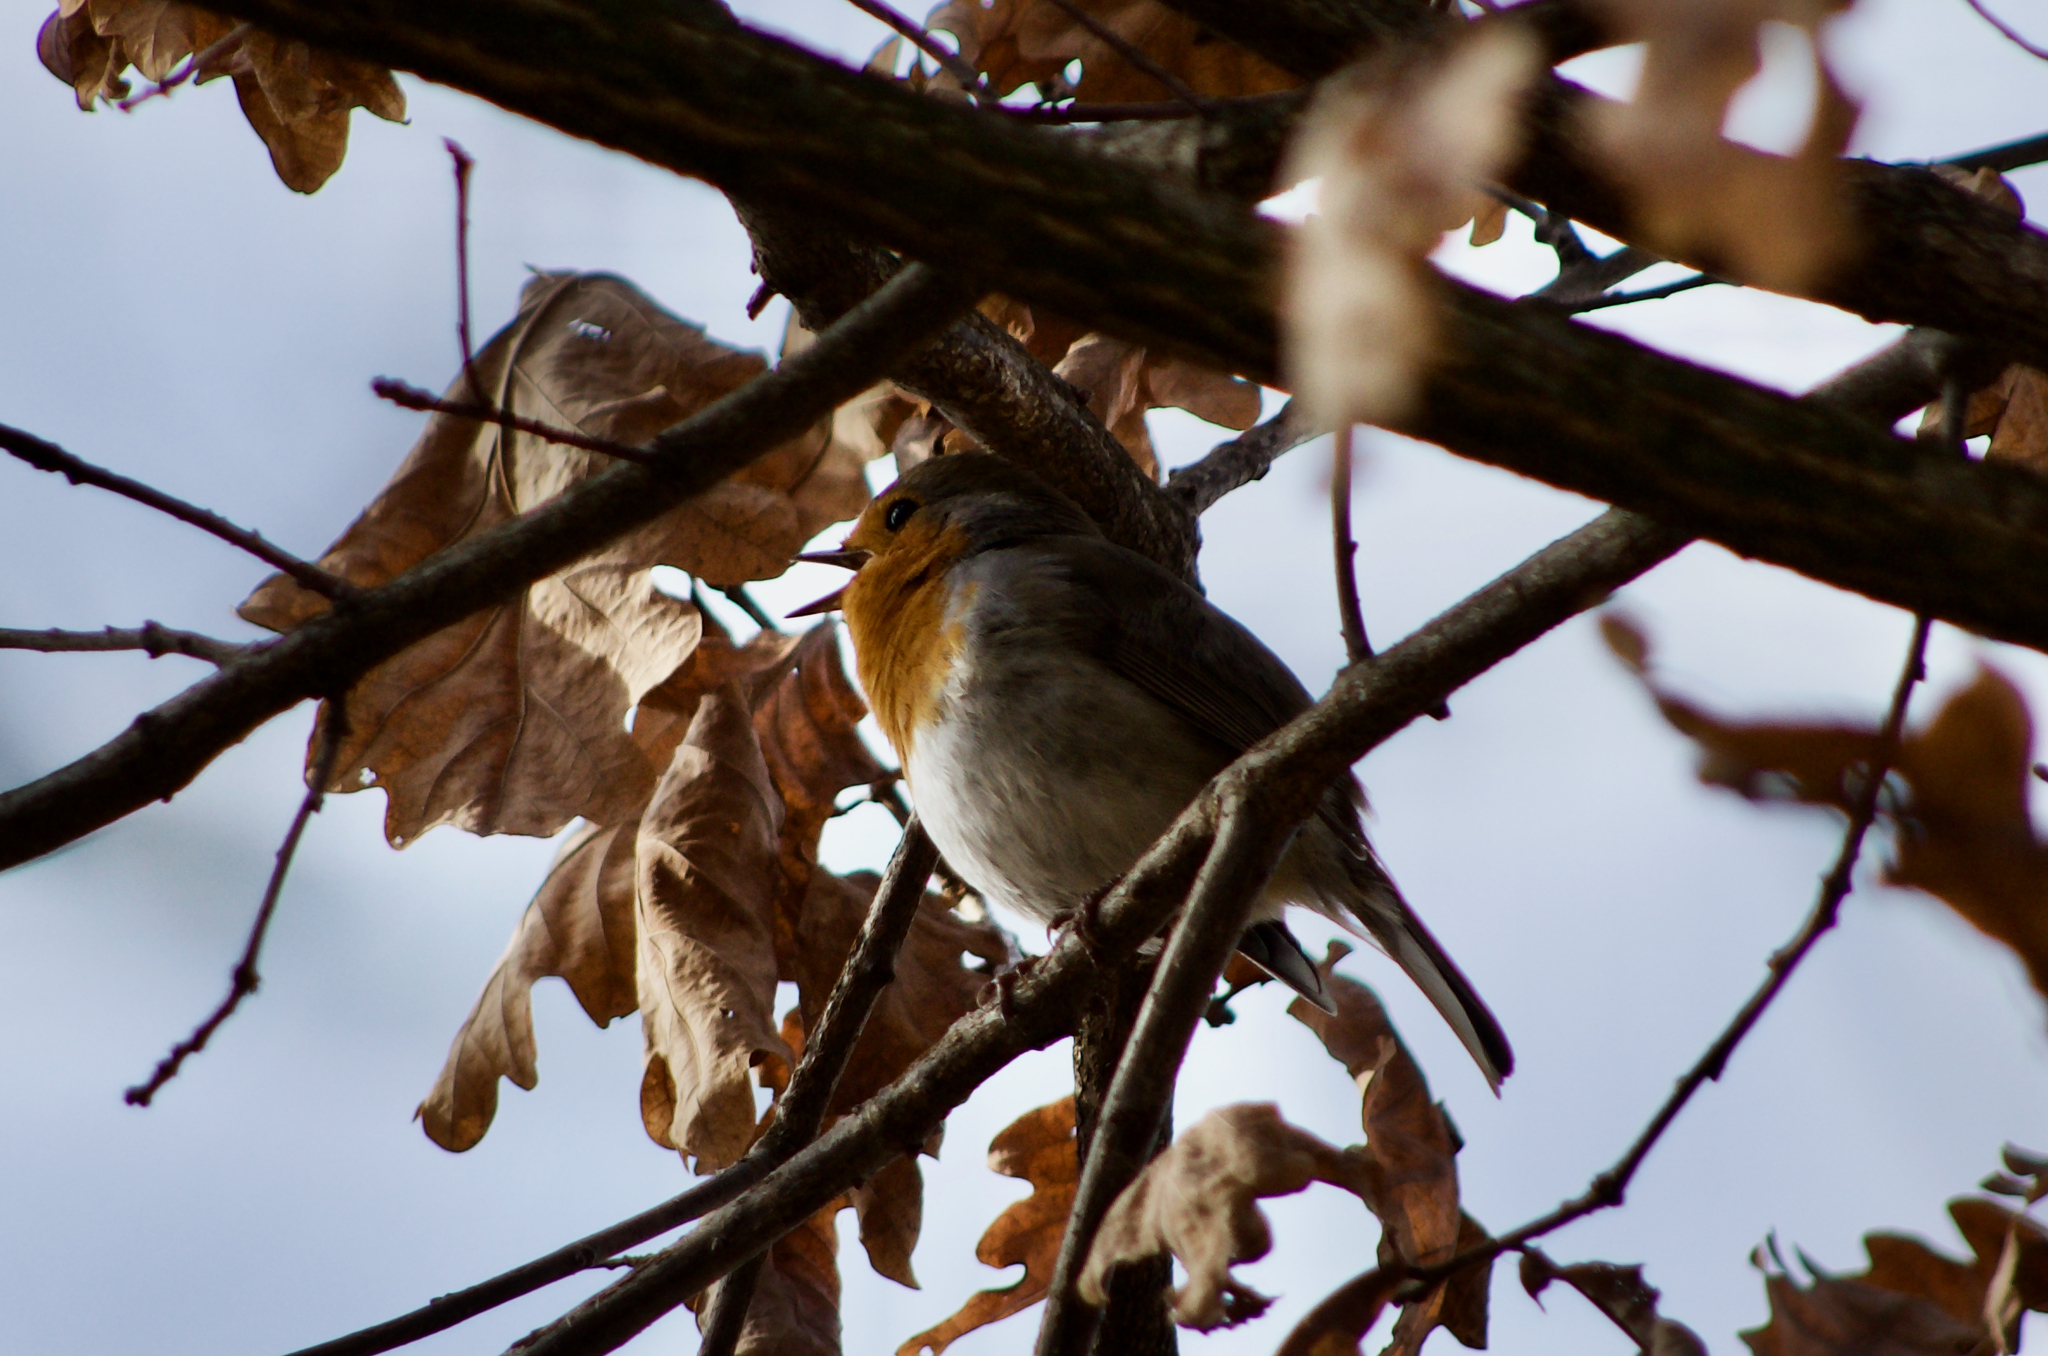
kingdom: Animalia
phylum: Chordata
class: Aves
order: Passeriformes
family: Muscicapidae
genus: Erithacus
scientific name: Erithacus rubecula
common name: European robin
